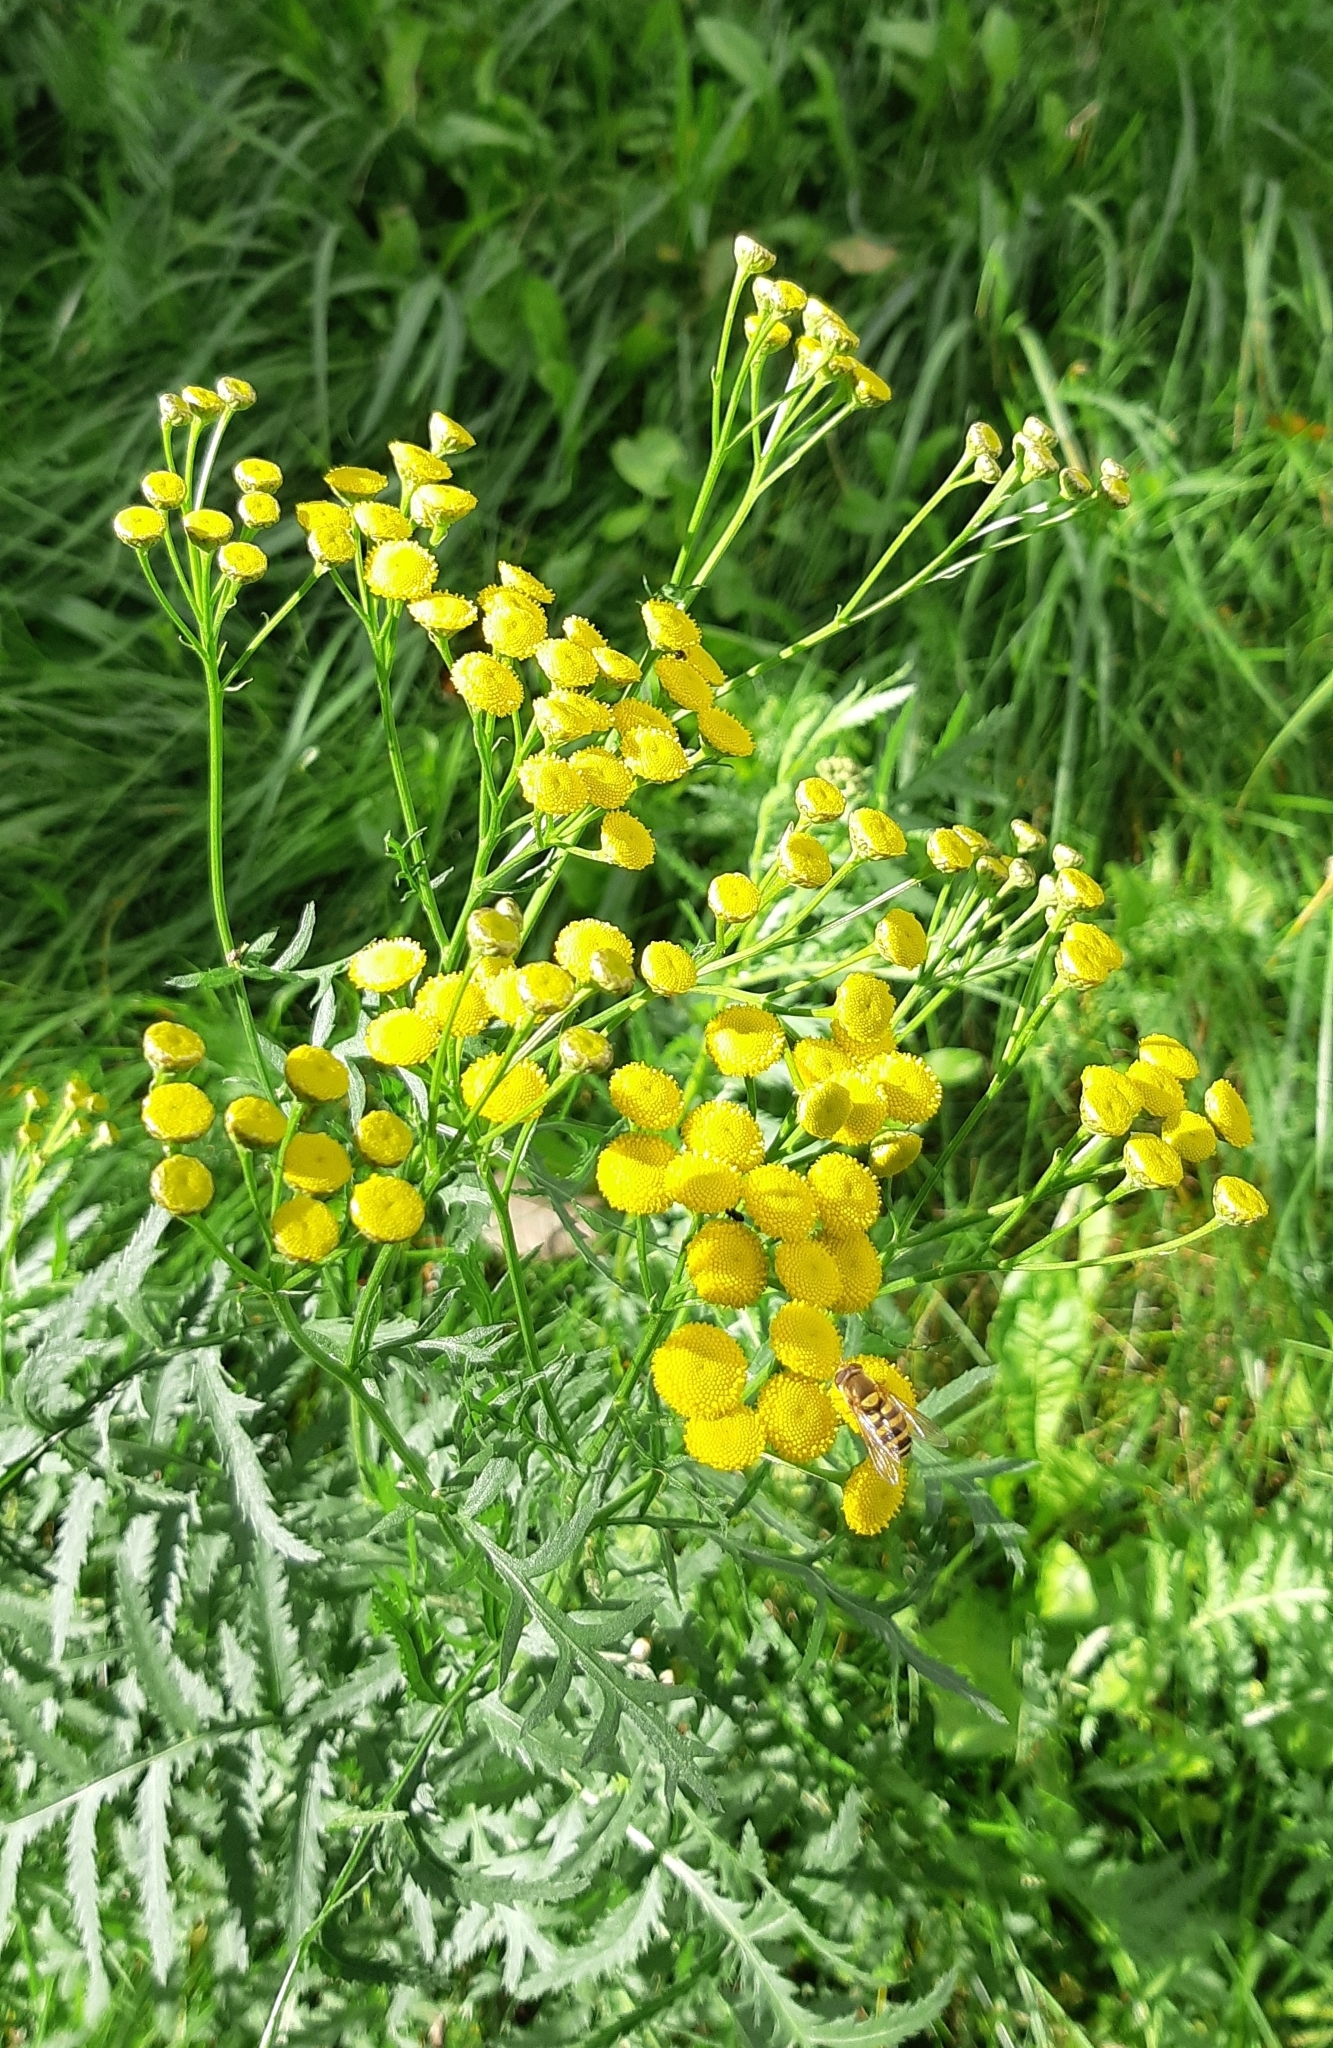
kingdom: Plantae
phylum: Tracheophyta
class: Magnoliopsida
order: Asterales
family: Asteraceae
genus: Tanacetum
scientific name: Tanacetum vulgare
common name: Common tansy
